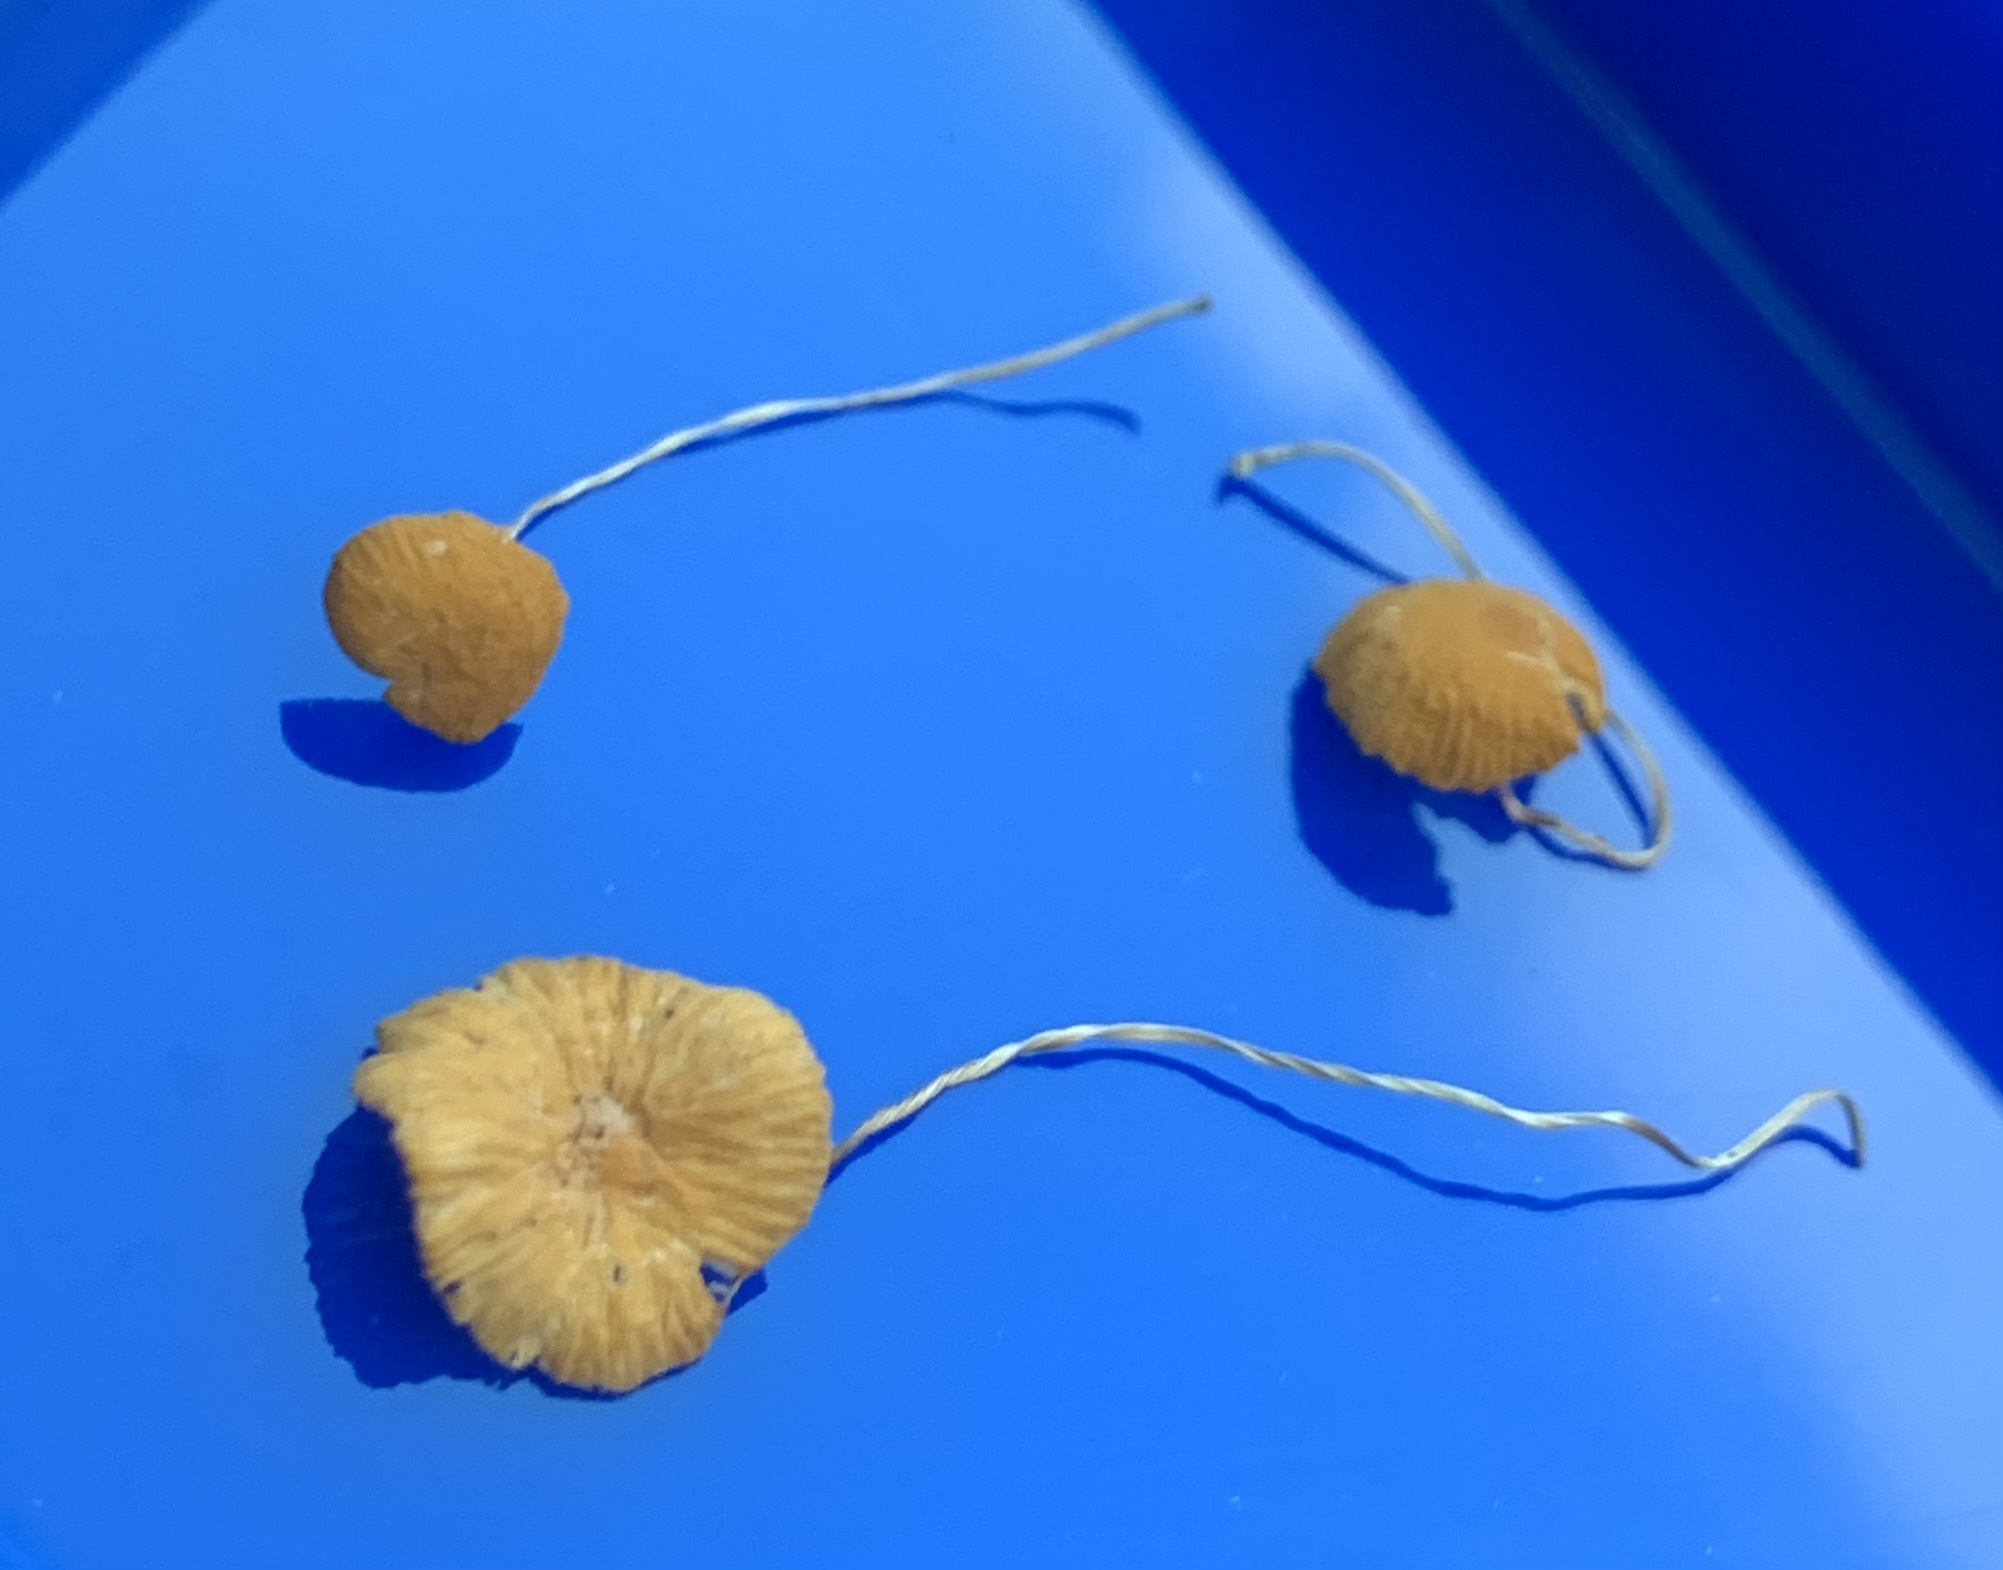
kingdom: Fungi
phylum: Basidiomycota
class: Agaricomycetes
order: Agaricales
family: Marasmiaceae
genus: Marasmius
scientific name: Marasmius armeniacus
